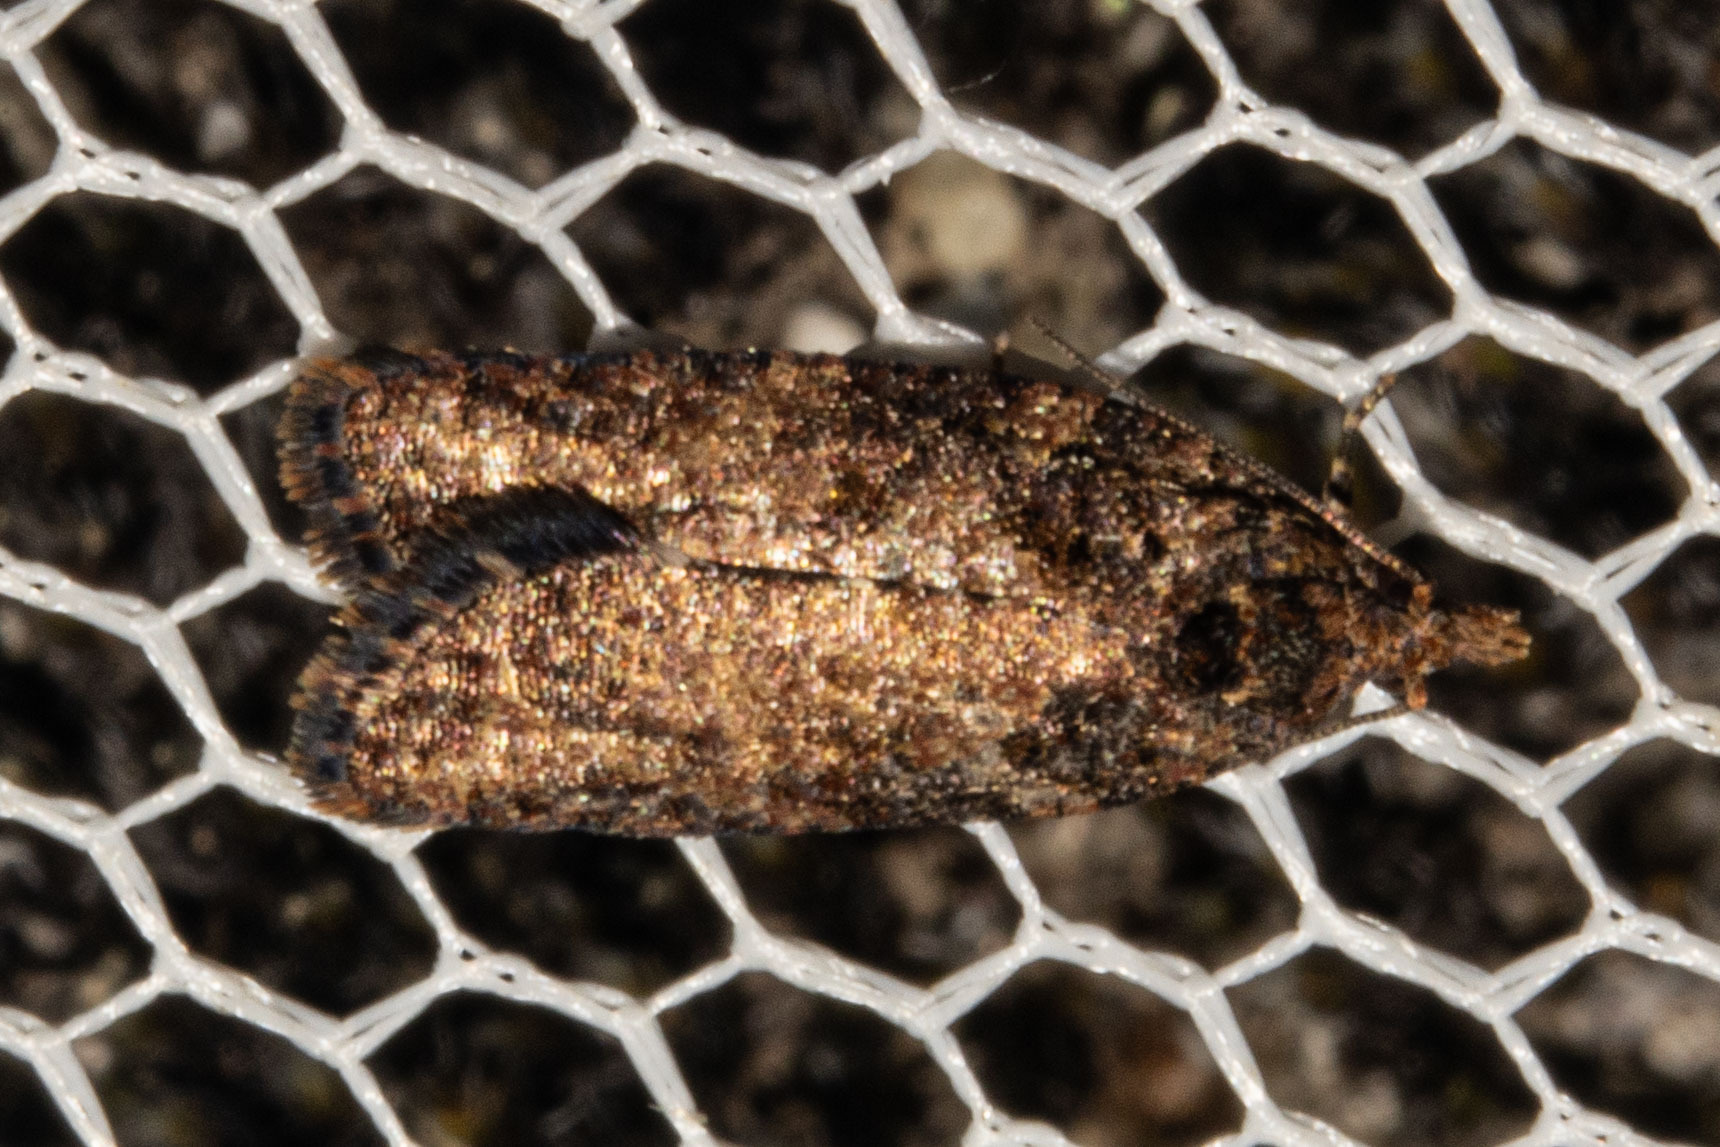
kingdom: Animalia
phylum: Arthropoda
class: Insecta
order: Lepidoptera
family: Tortricidae
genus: Capua
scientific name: Capua intractana
